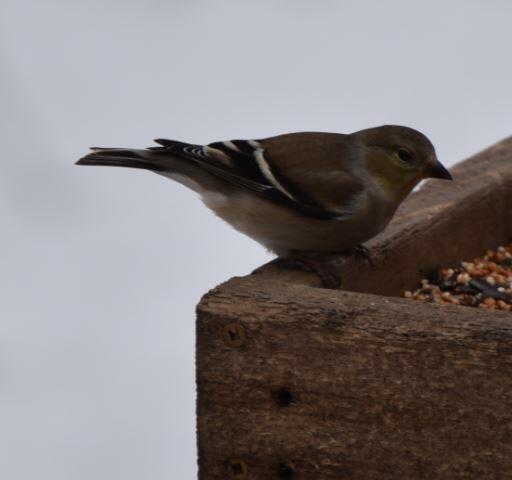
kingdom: Animalia
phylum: Chordata
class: Aves
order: Passeriformes
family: Fringillidae
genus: Spinus
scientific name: Spinus tristis
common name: American goldfinch
